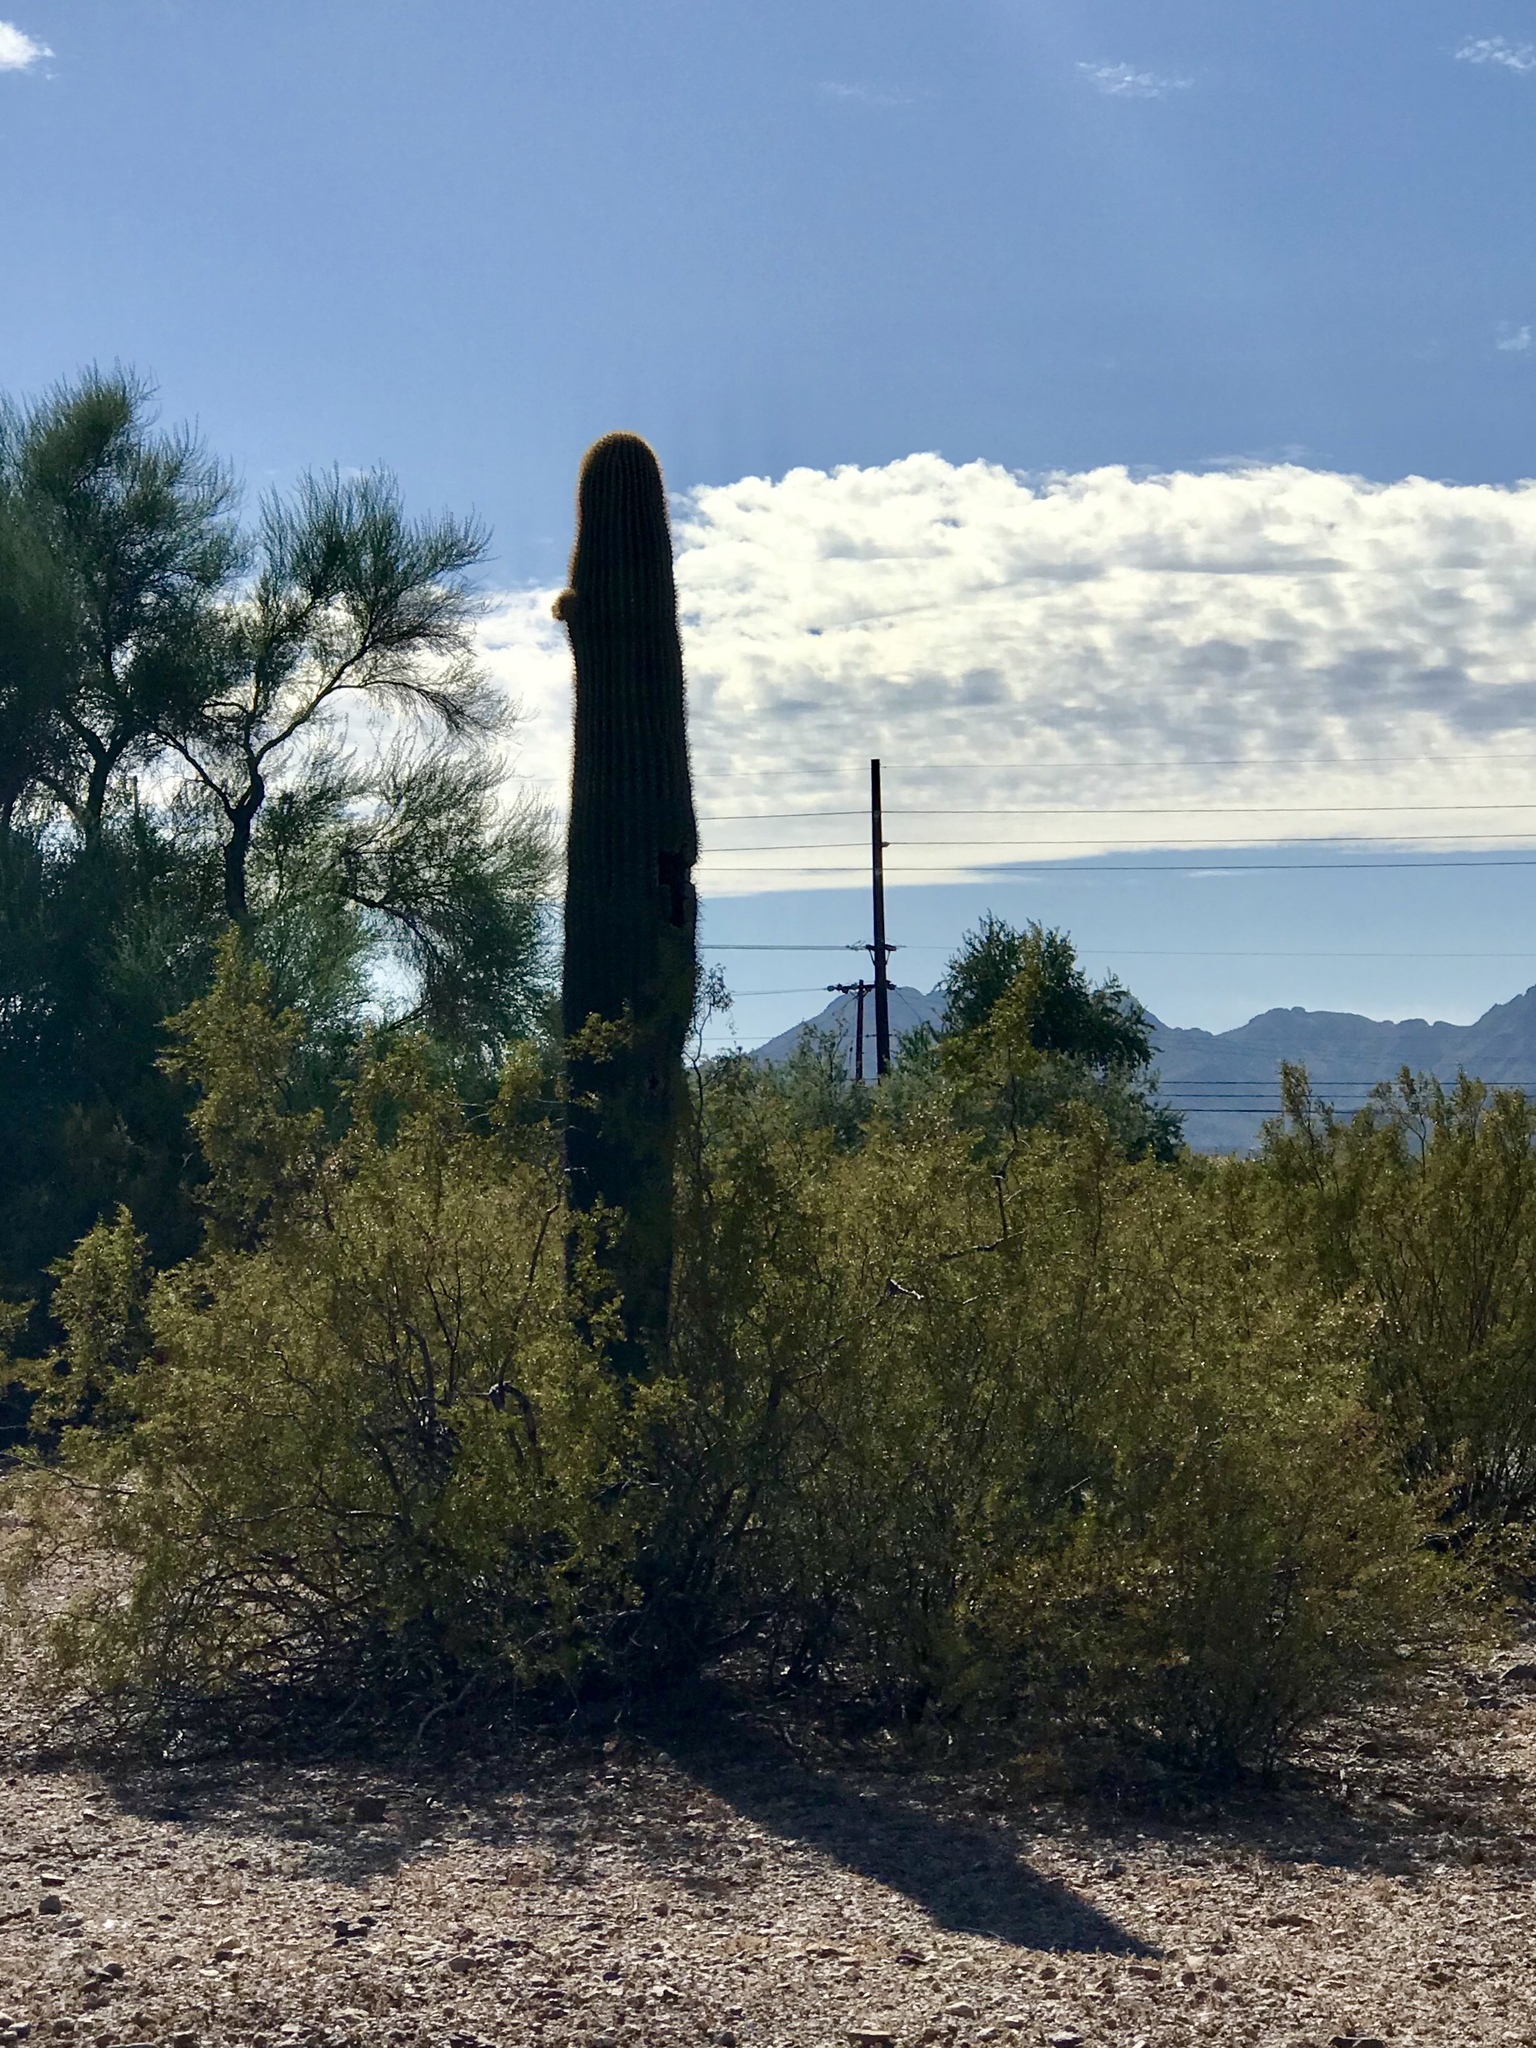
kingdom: Plantae
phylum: Tracheophyta
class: Magnoliopsida
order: Zygophyllales
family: Zygophyllaceae
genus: Larrea
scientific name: Larrea tridentata
